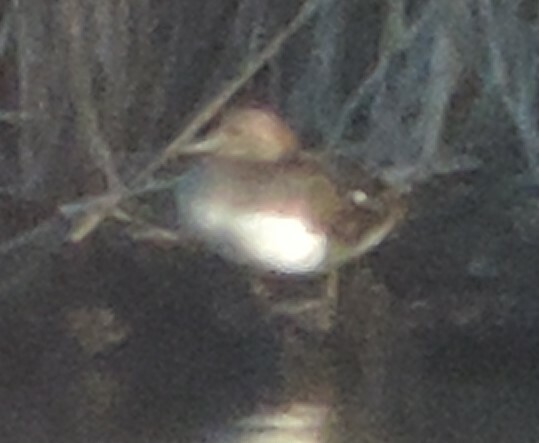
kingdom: Animalia
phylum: Chordata
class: Aves
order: Anseriformes
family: Anatidae
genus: Lophodytes
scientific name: Lophodytes cucullatus
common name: Hooded merganser
